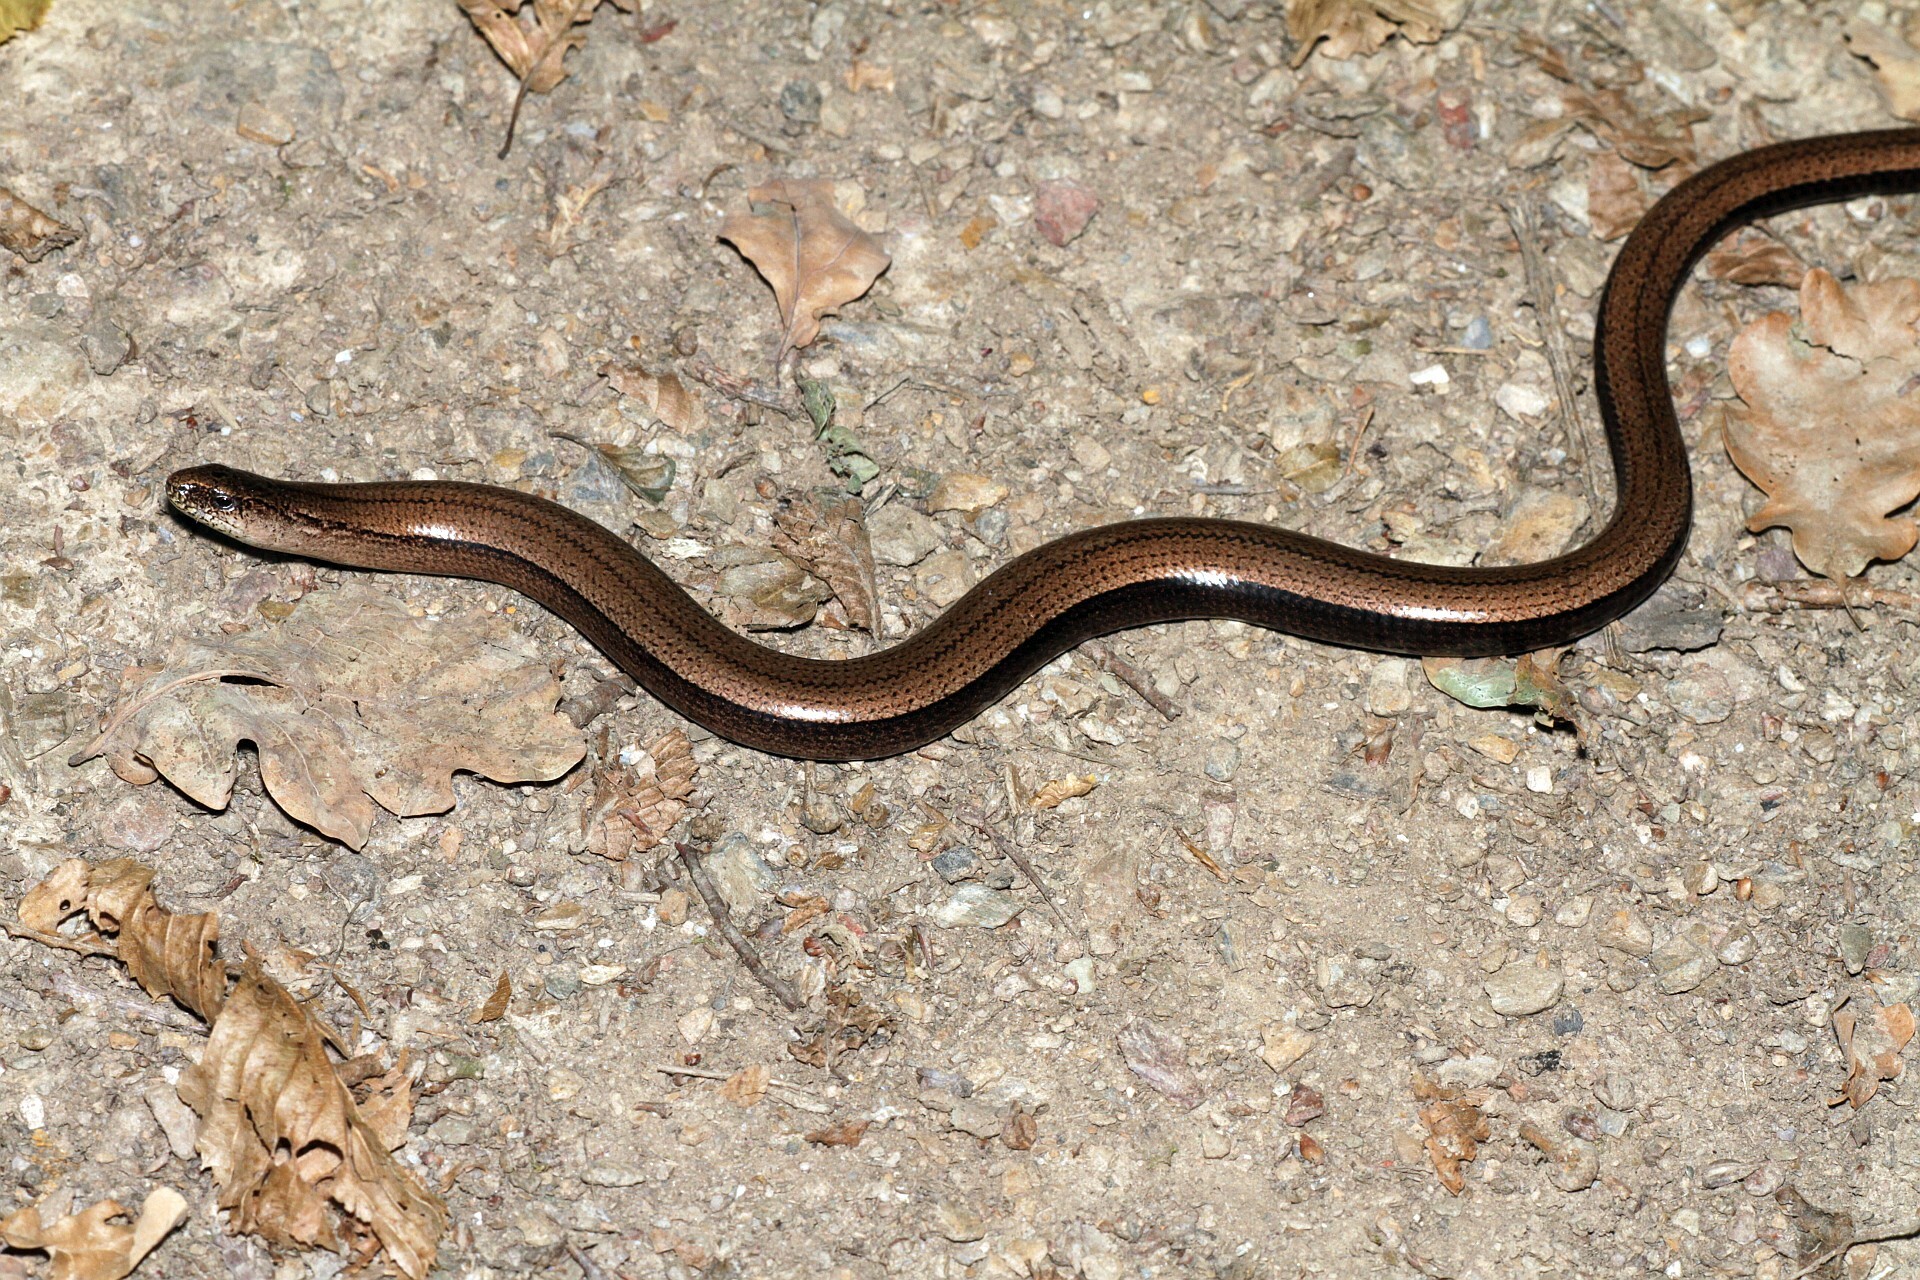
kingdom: Animalia
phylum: Chordata
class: Squamata
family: Anguidae
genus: Anguis
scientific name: Anguis fragilis
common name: Slow worm
